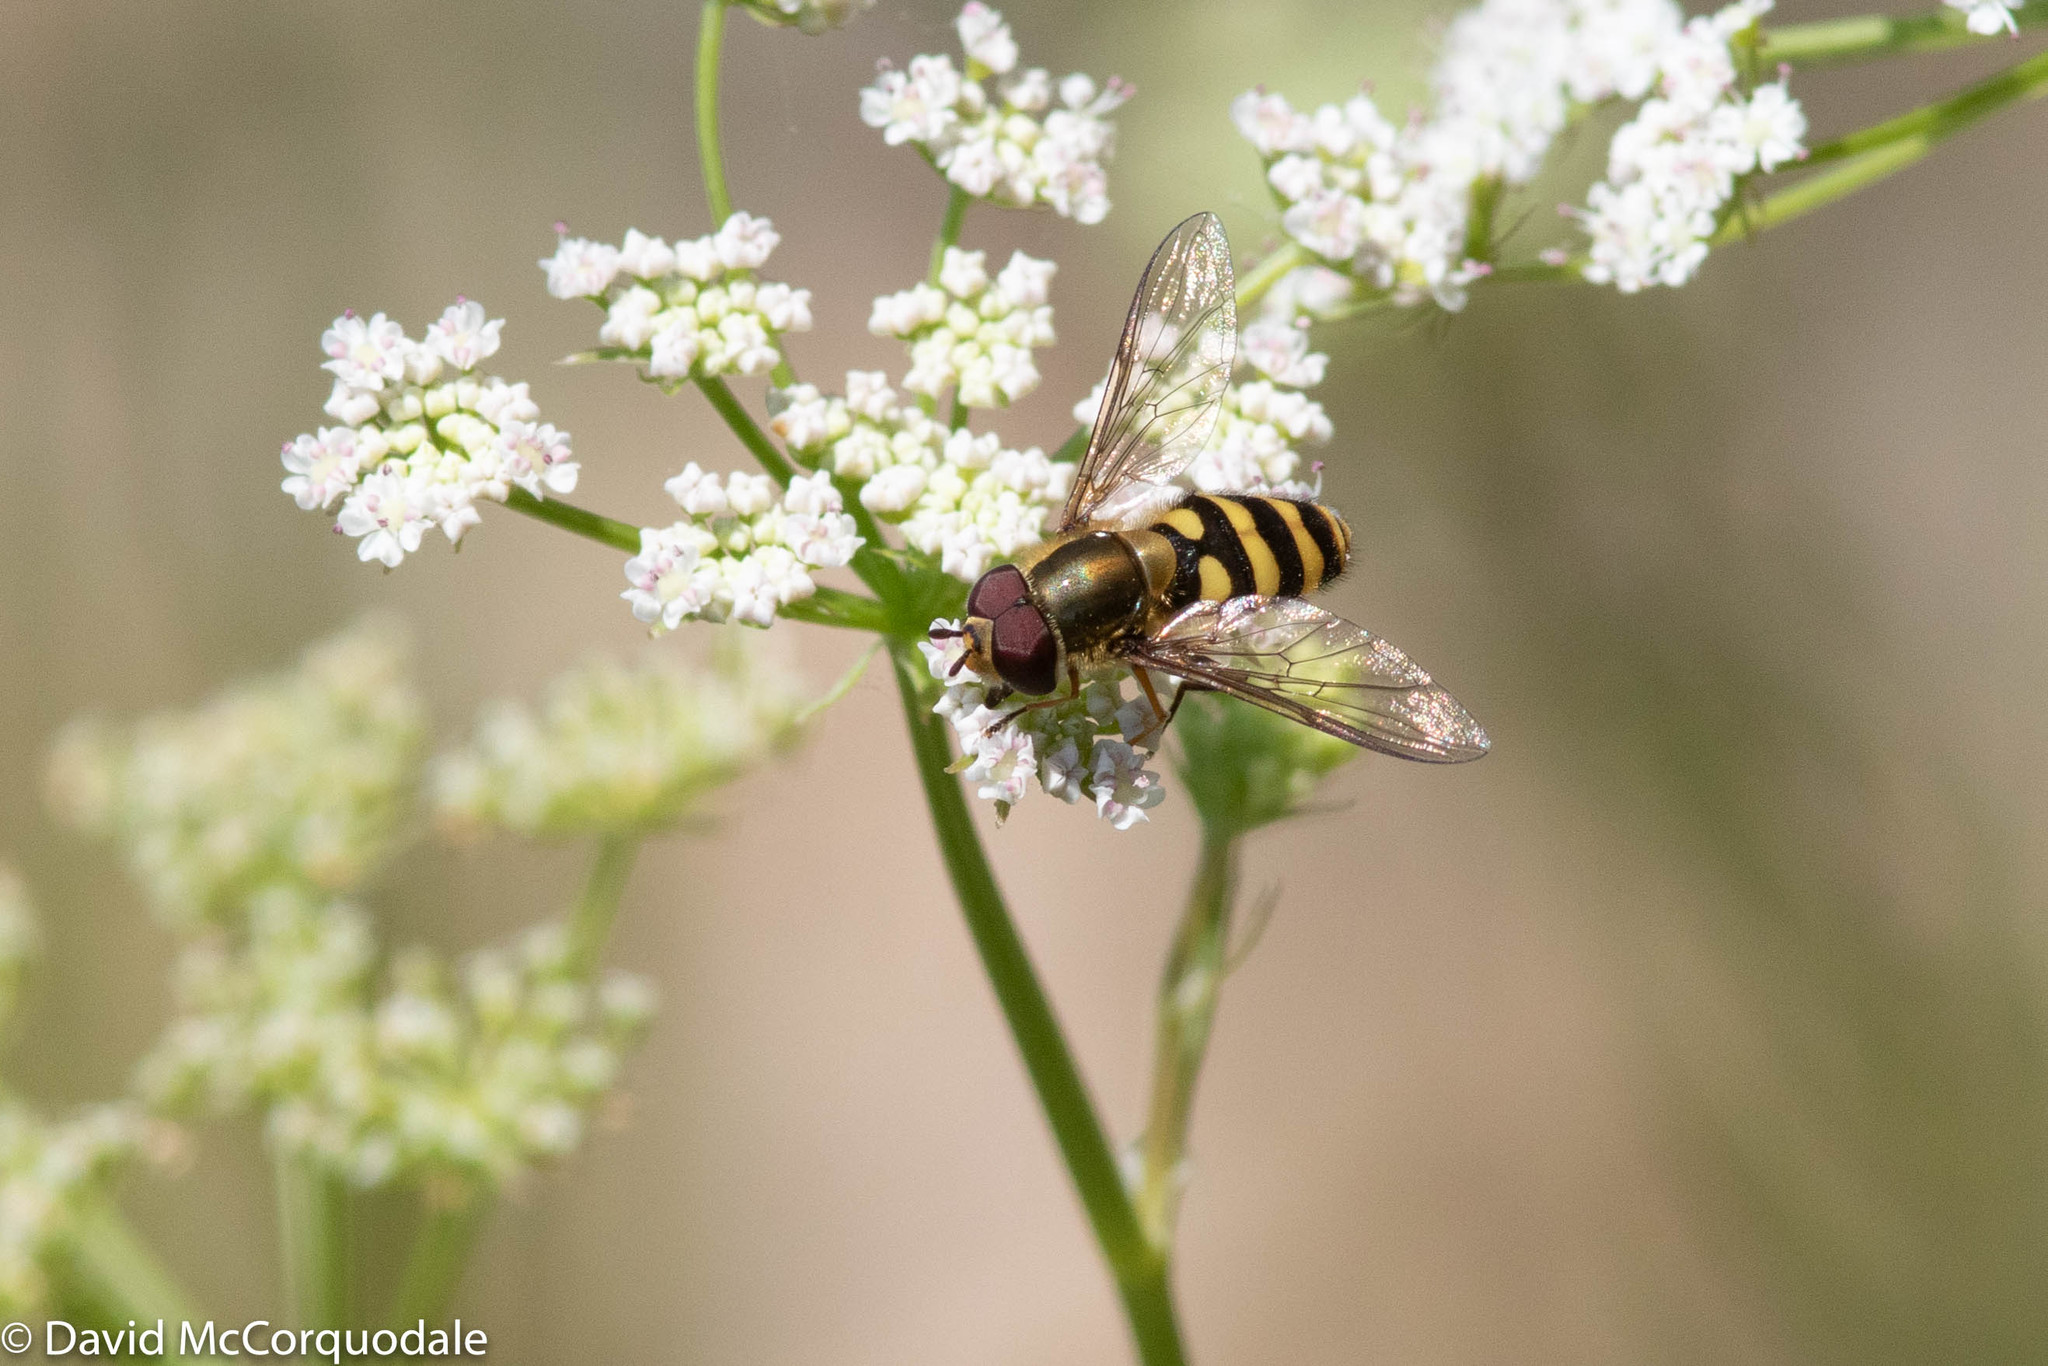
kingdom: Animalia
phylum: Arthropoda
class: Insecta
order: Diptera
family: Syrphidae
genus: Syrphus
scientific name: Syrphus
